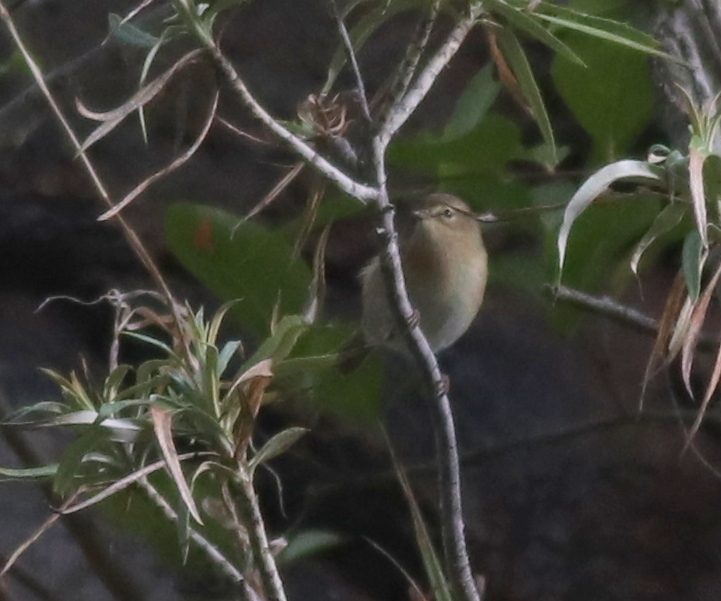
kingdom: Animalia
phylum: Chordata
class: Aves
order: Passeriformes
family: Phylloscopidae
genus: Phylloscopus
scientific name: Phylloscopus canariensis
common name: Canary islands chiffchaff
